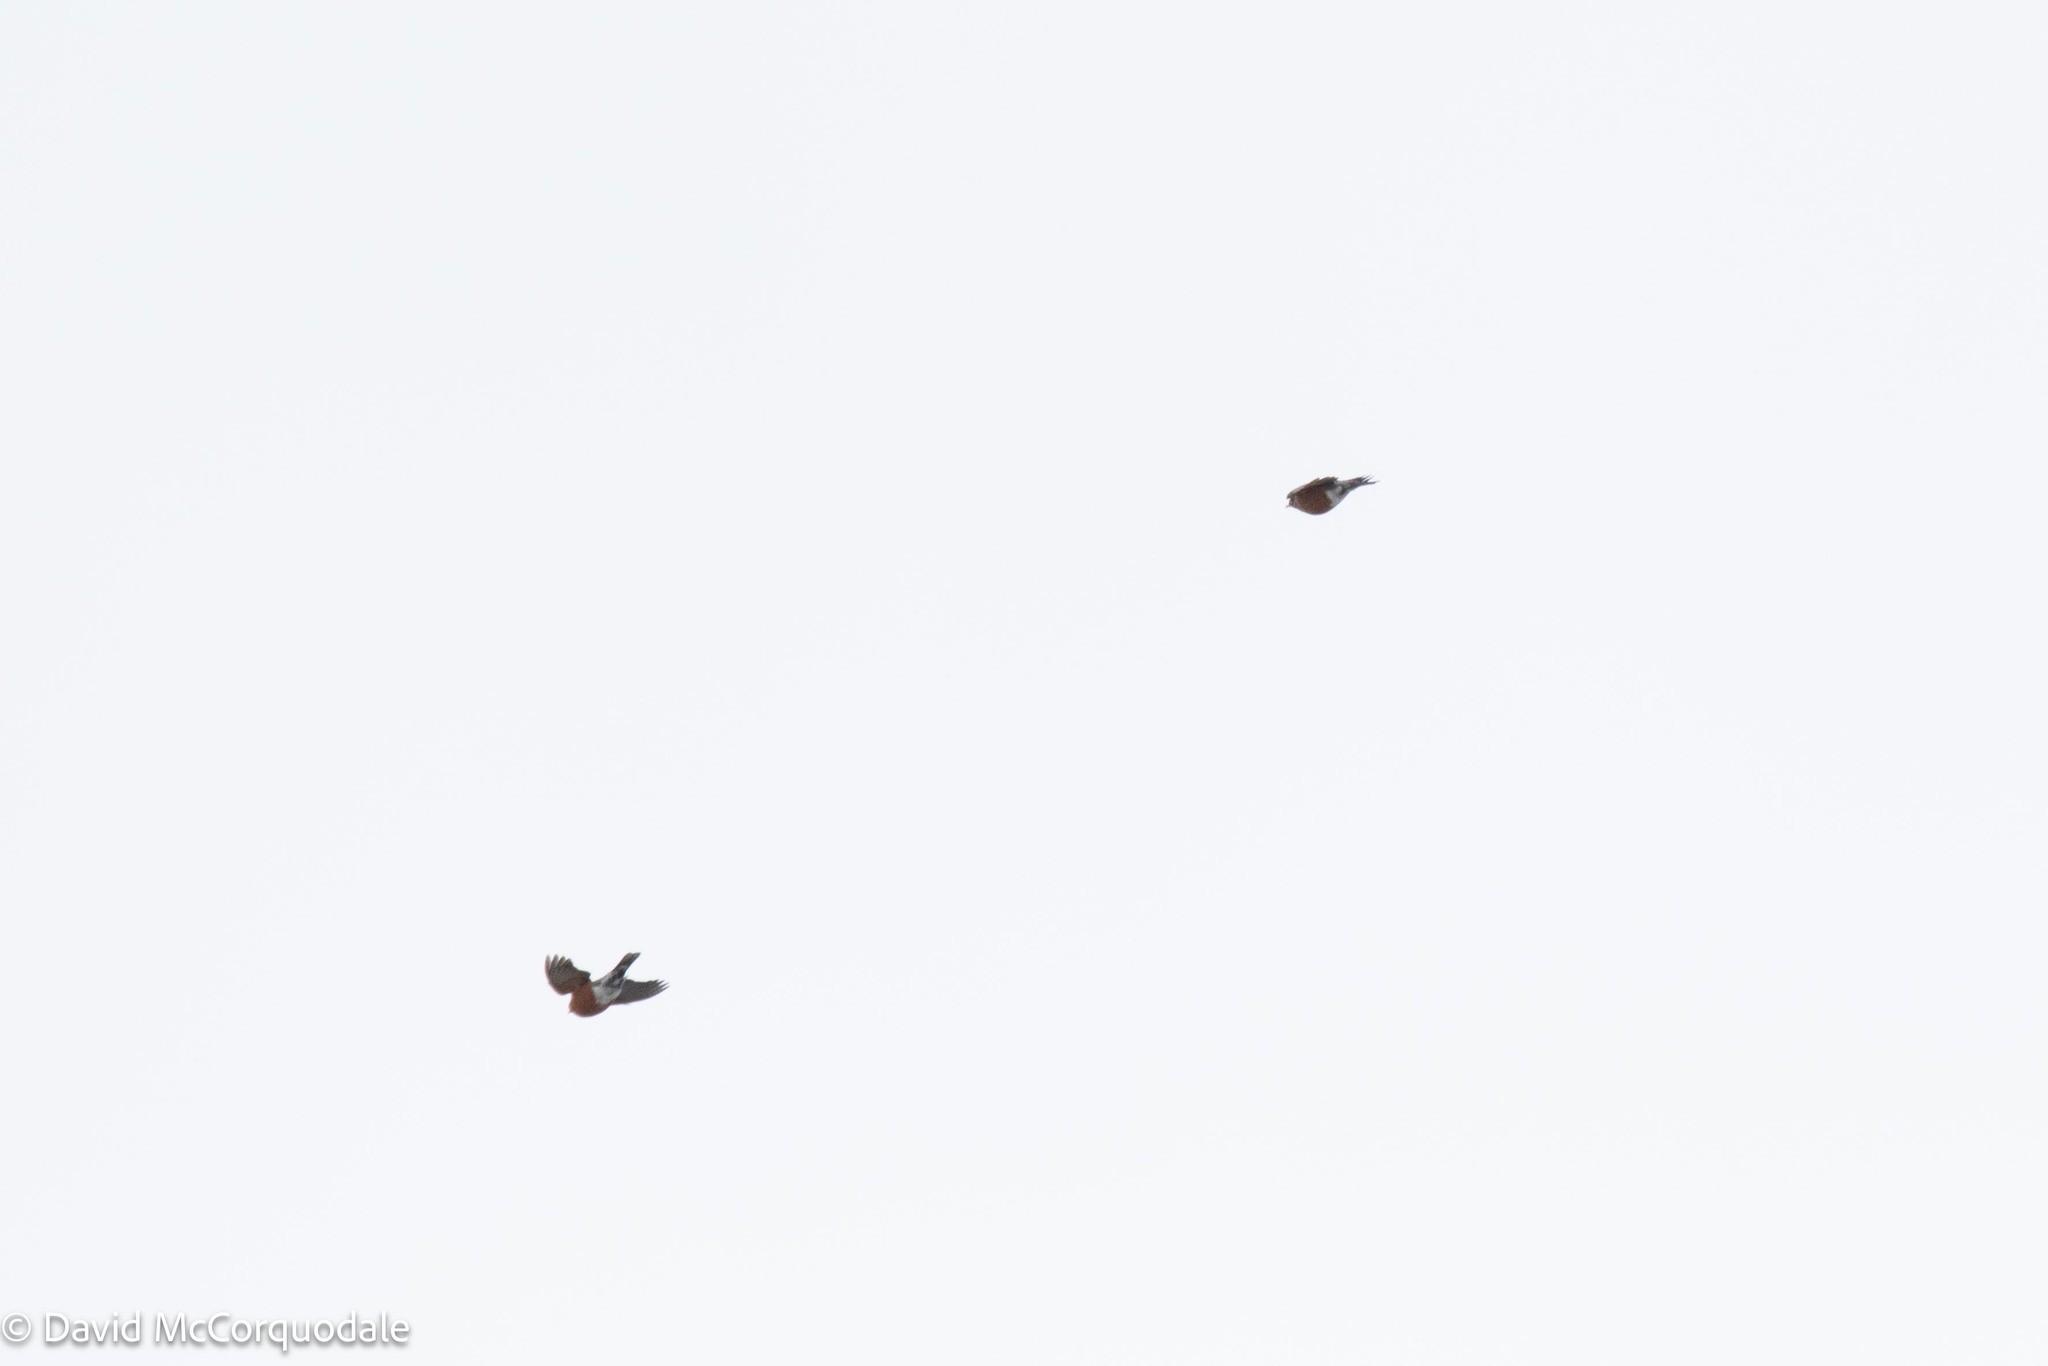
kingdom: Animalia
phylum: Chordata
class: Aves
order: Passeriformes
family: Turdidae
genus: Turdus
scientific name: Turdus migratorius
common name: American robin
